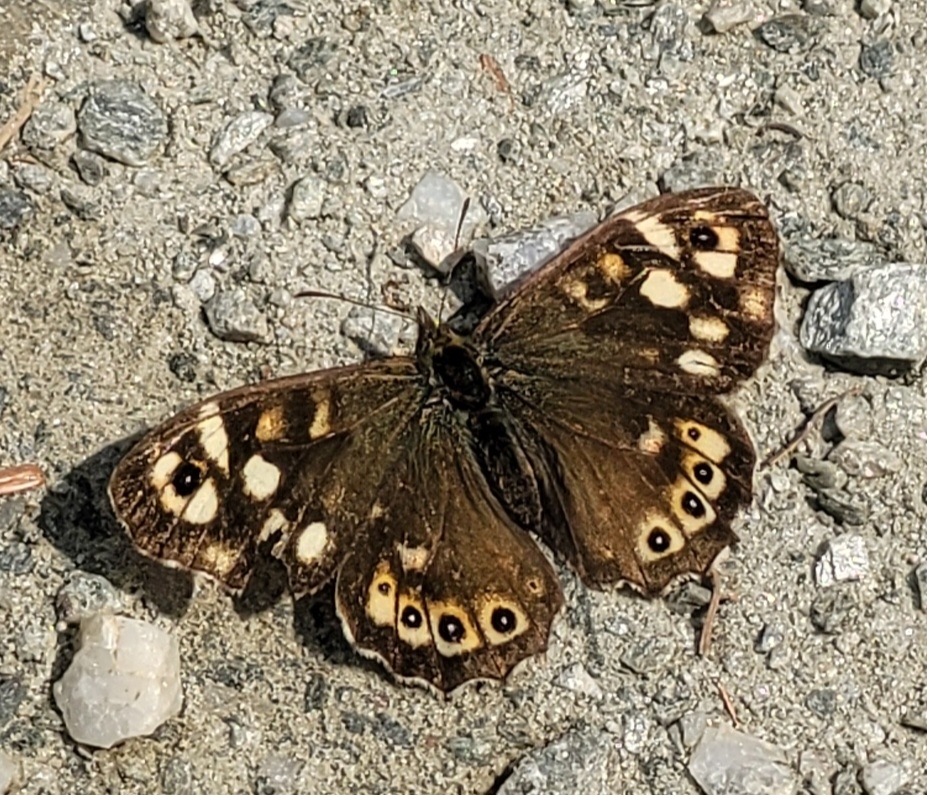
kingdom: Animalia
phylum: Arthropoda
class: Insecta
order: Lepidoptera
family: Nymphalidae
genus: Pararge
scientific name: Pararge aegeria
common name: Speckled wood
